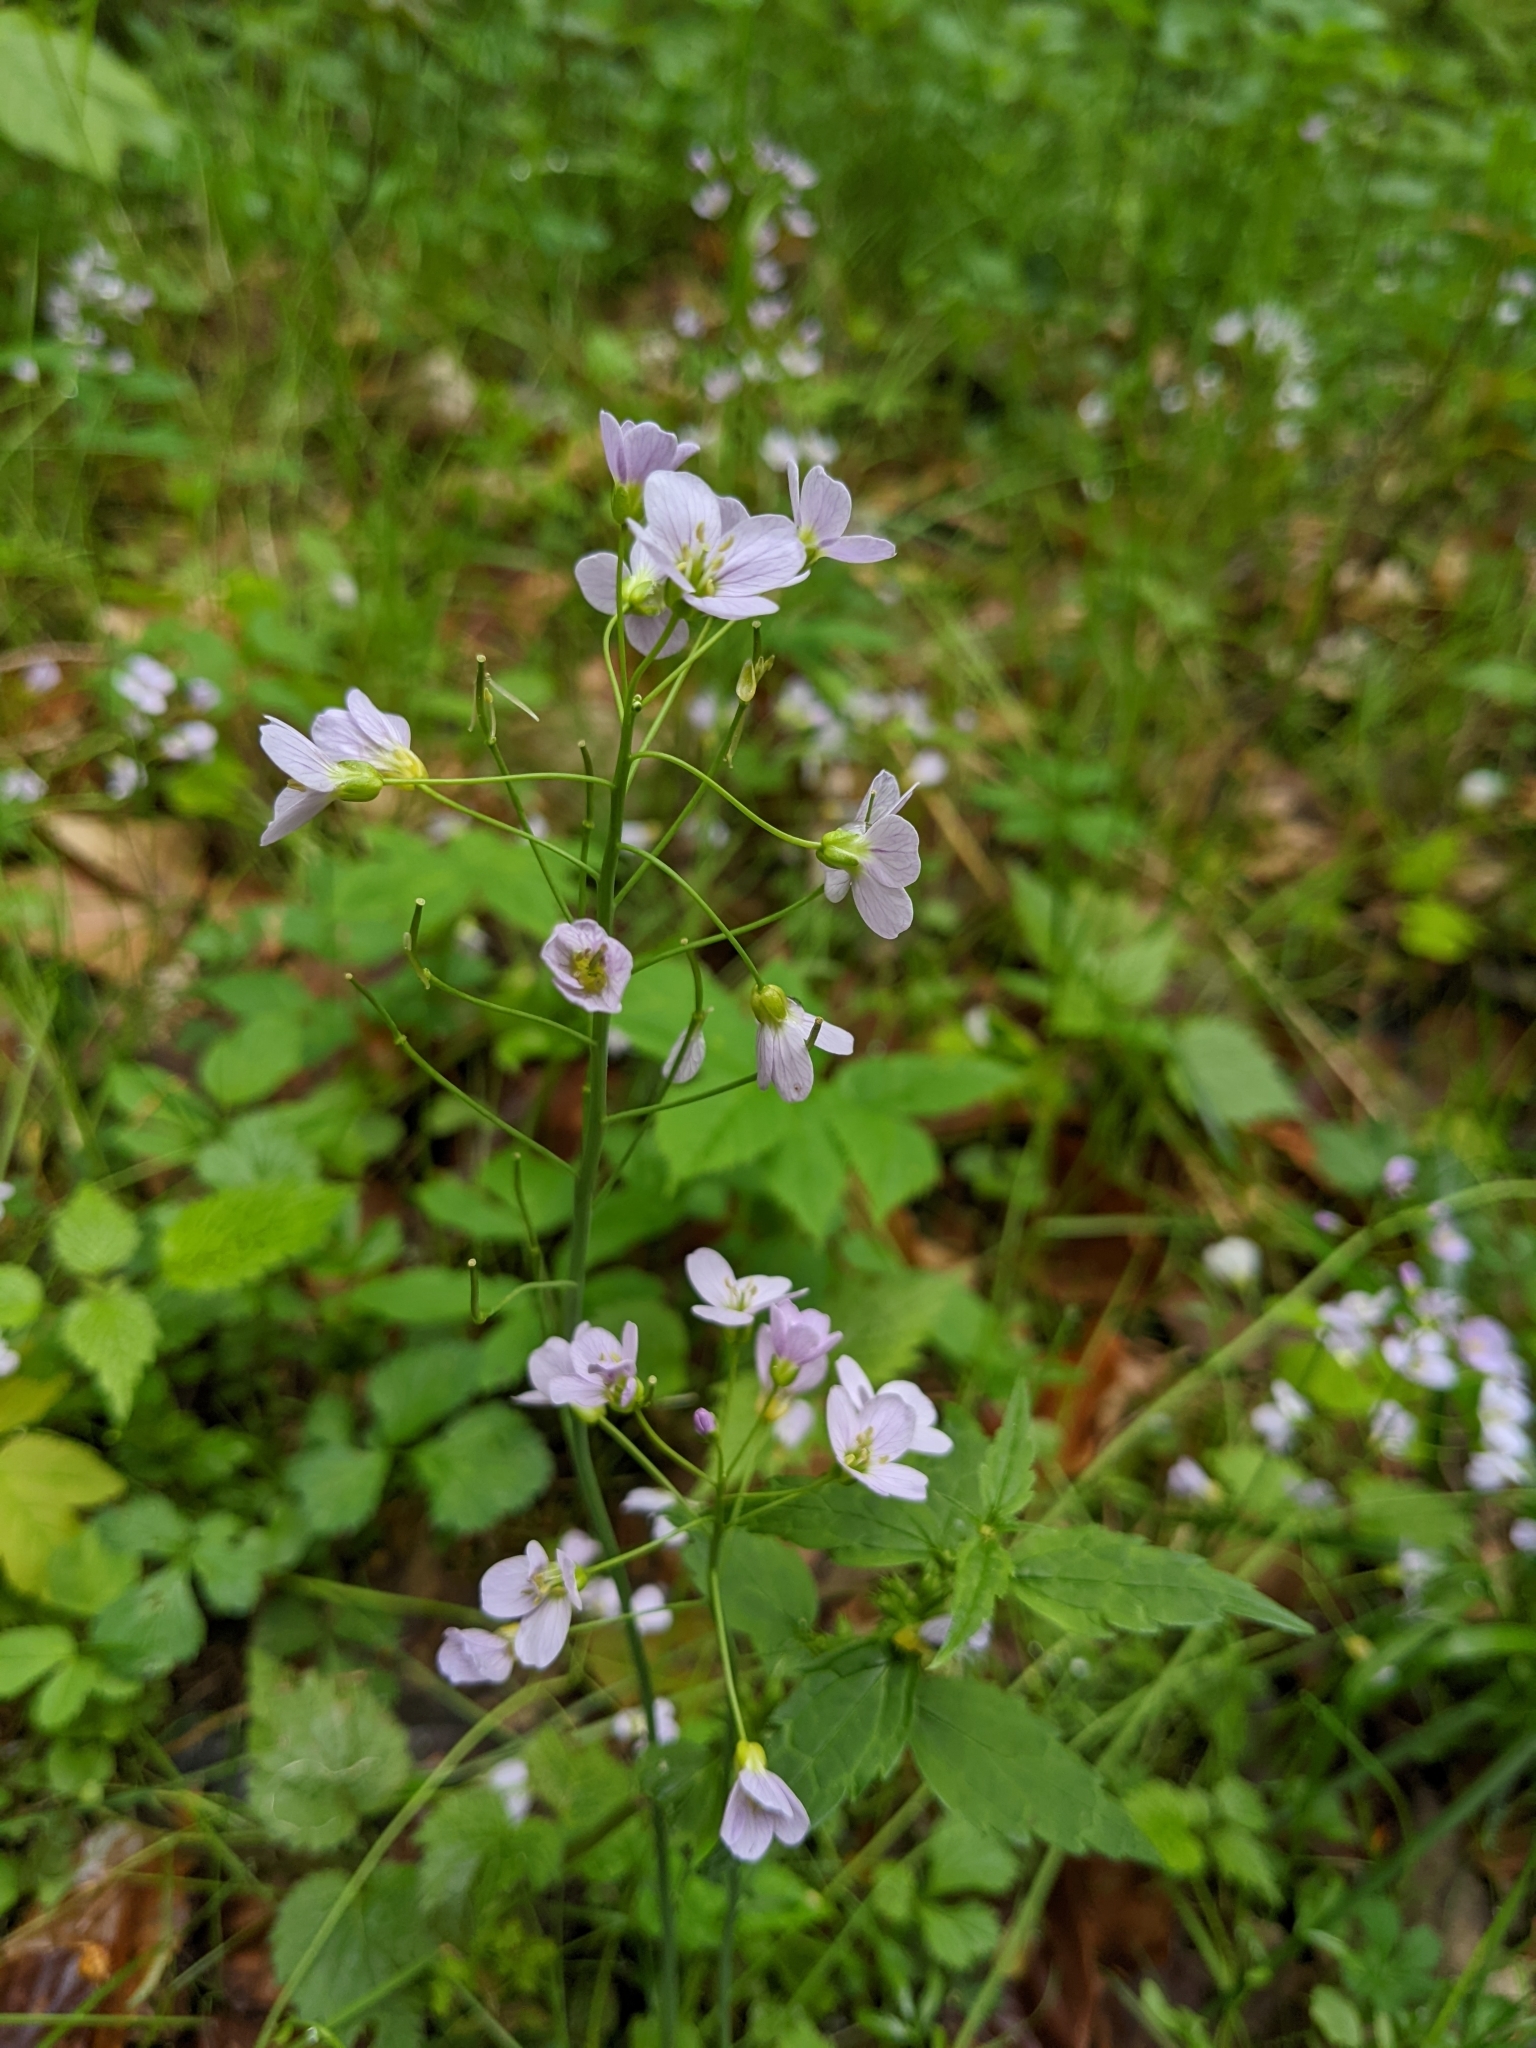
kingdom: Plantae
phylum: Tracheophyta
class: Magnoliopsida
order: Brassicales
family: Brassicaceae
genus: Cardamine
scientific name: Cardamine pratensis
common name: Cuckoo flower
